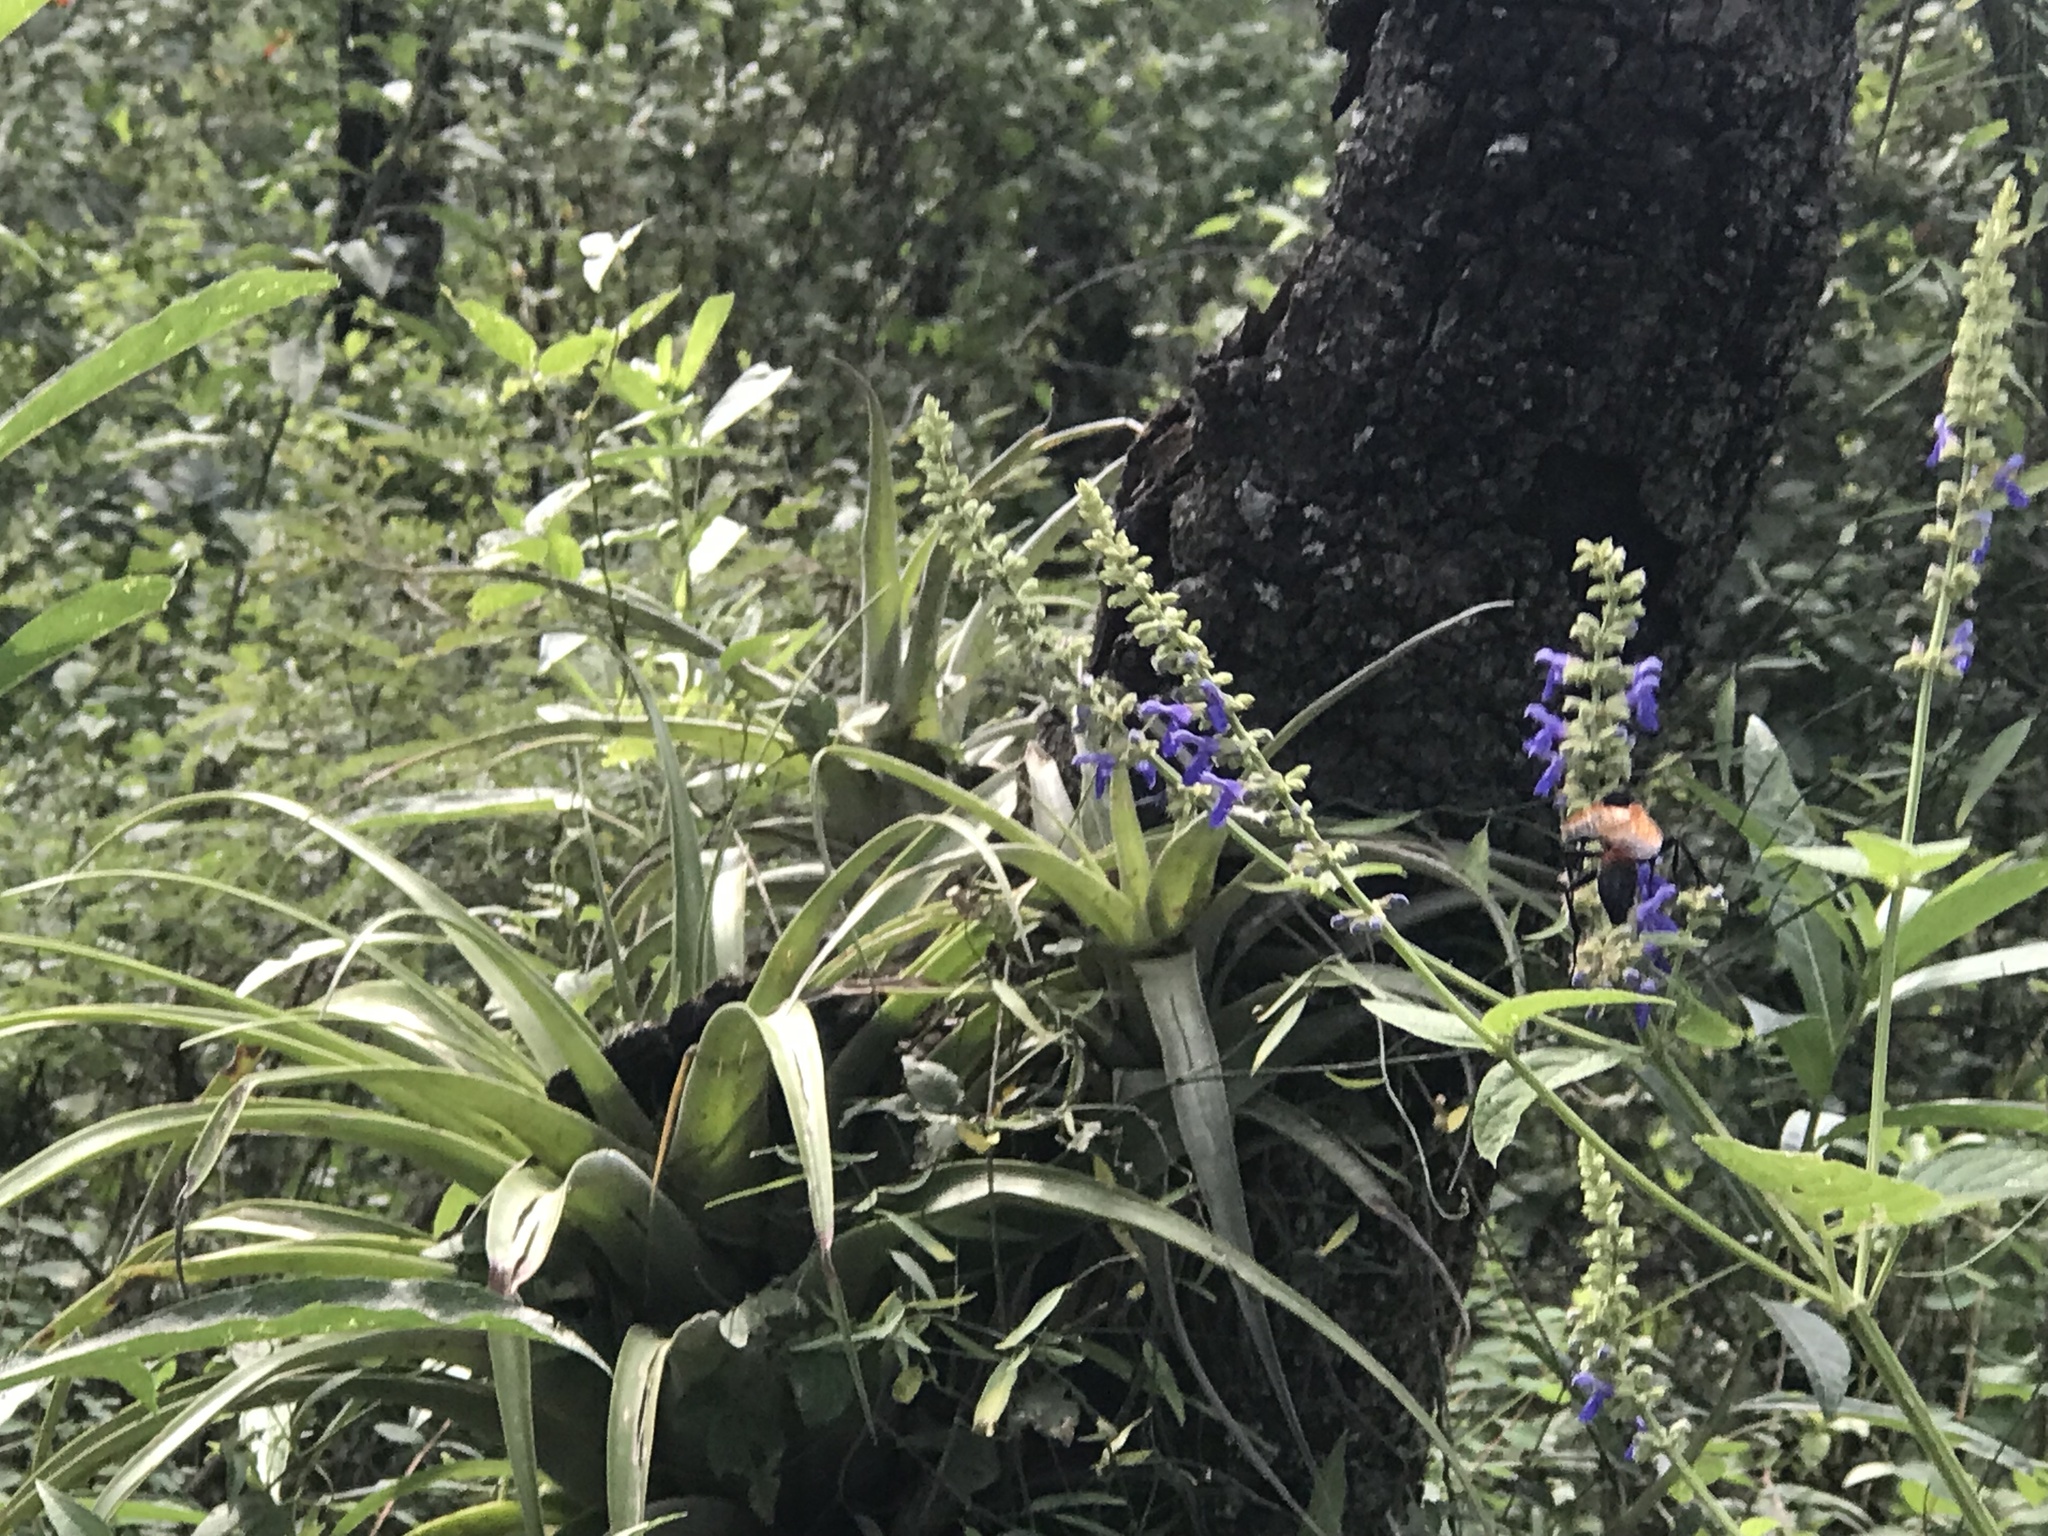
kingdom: Plantae
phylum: Tracheophyta
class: Magnoliopsida
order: Lamiales
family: Lamiaceae
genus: Salvia
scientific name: Salvia polystachia
